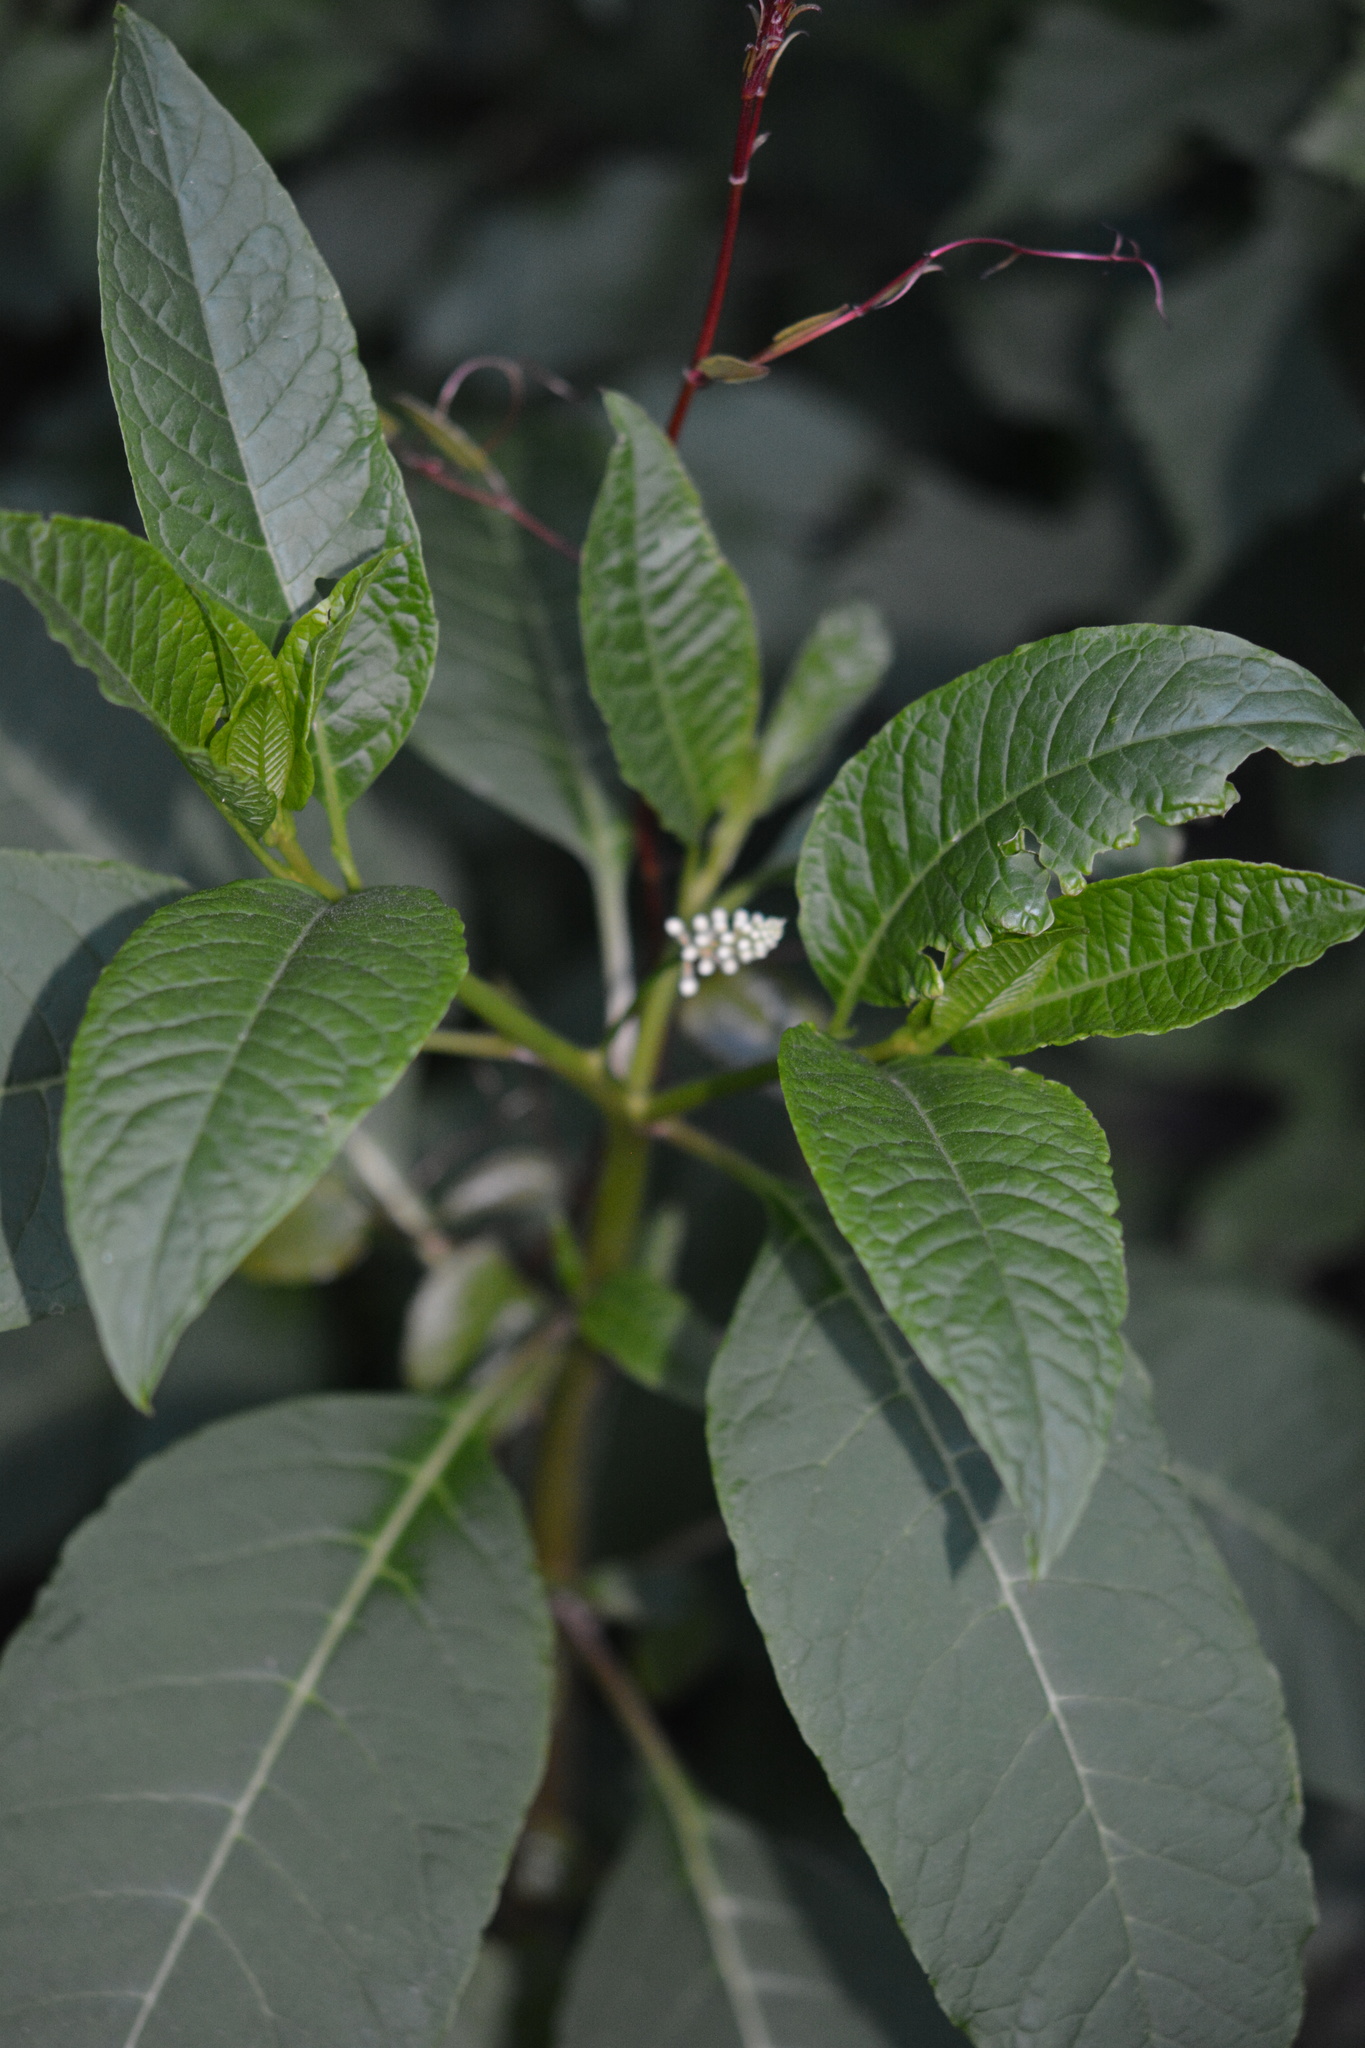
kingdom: Plantae
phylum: Tracheophyta
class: Magnoliopsida
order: Caryophyllales
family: Phytolaccaceae
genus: Phytolacca
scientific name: Phytolacca americana
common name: American pokeweed
